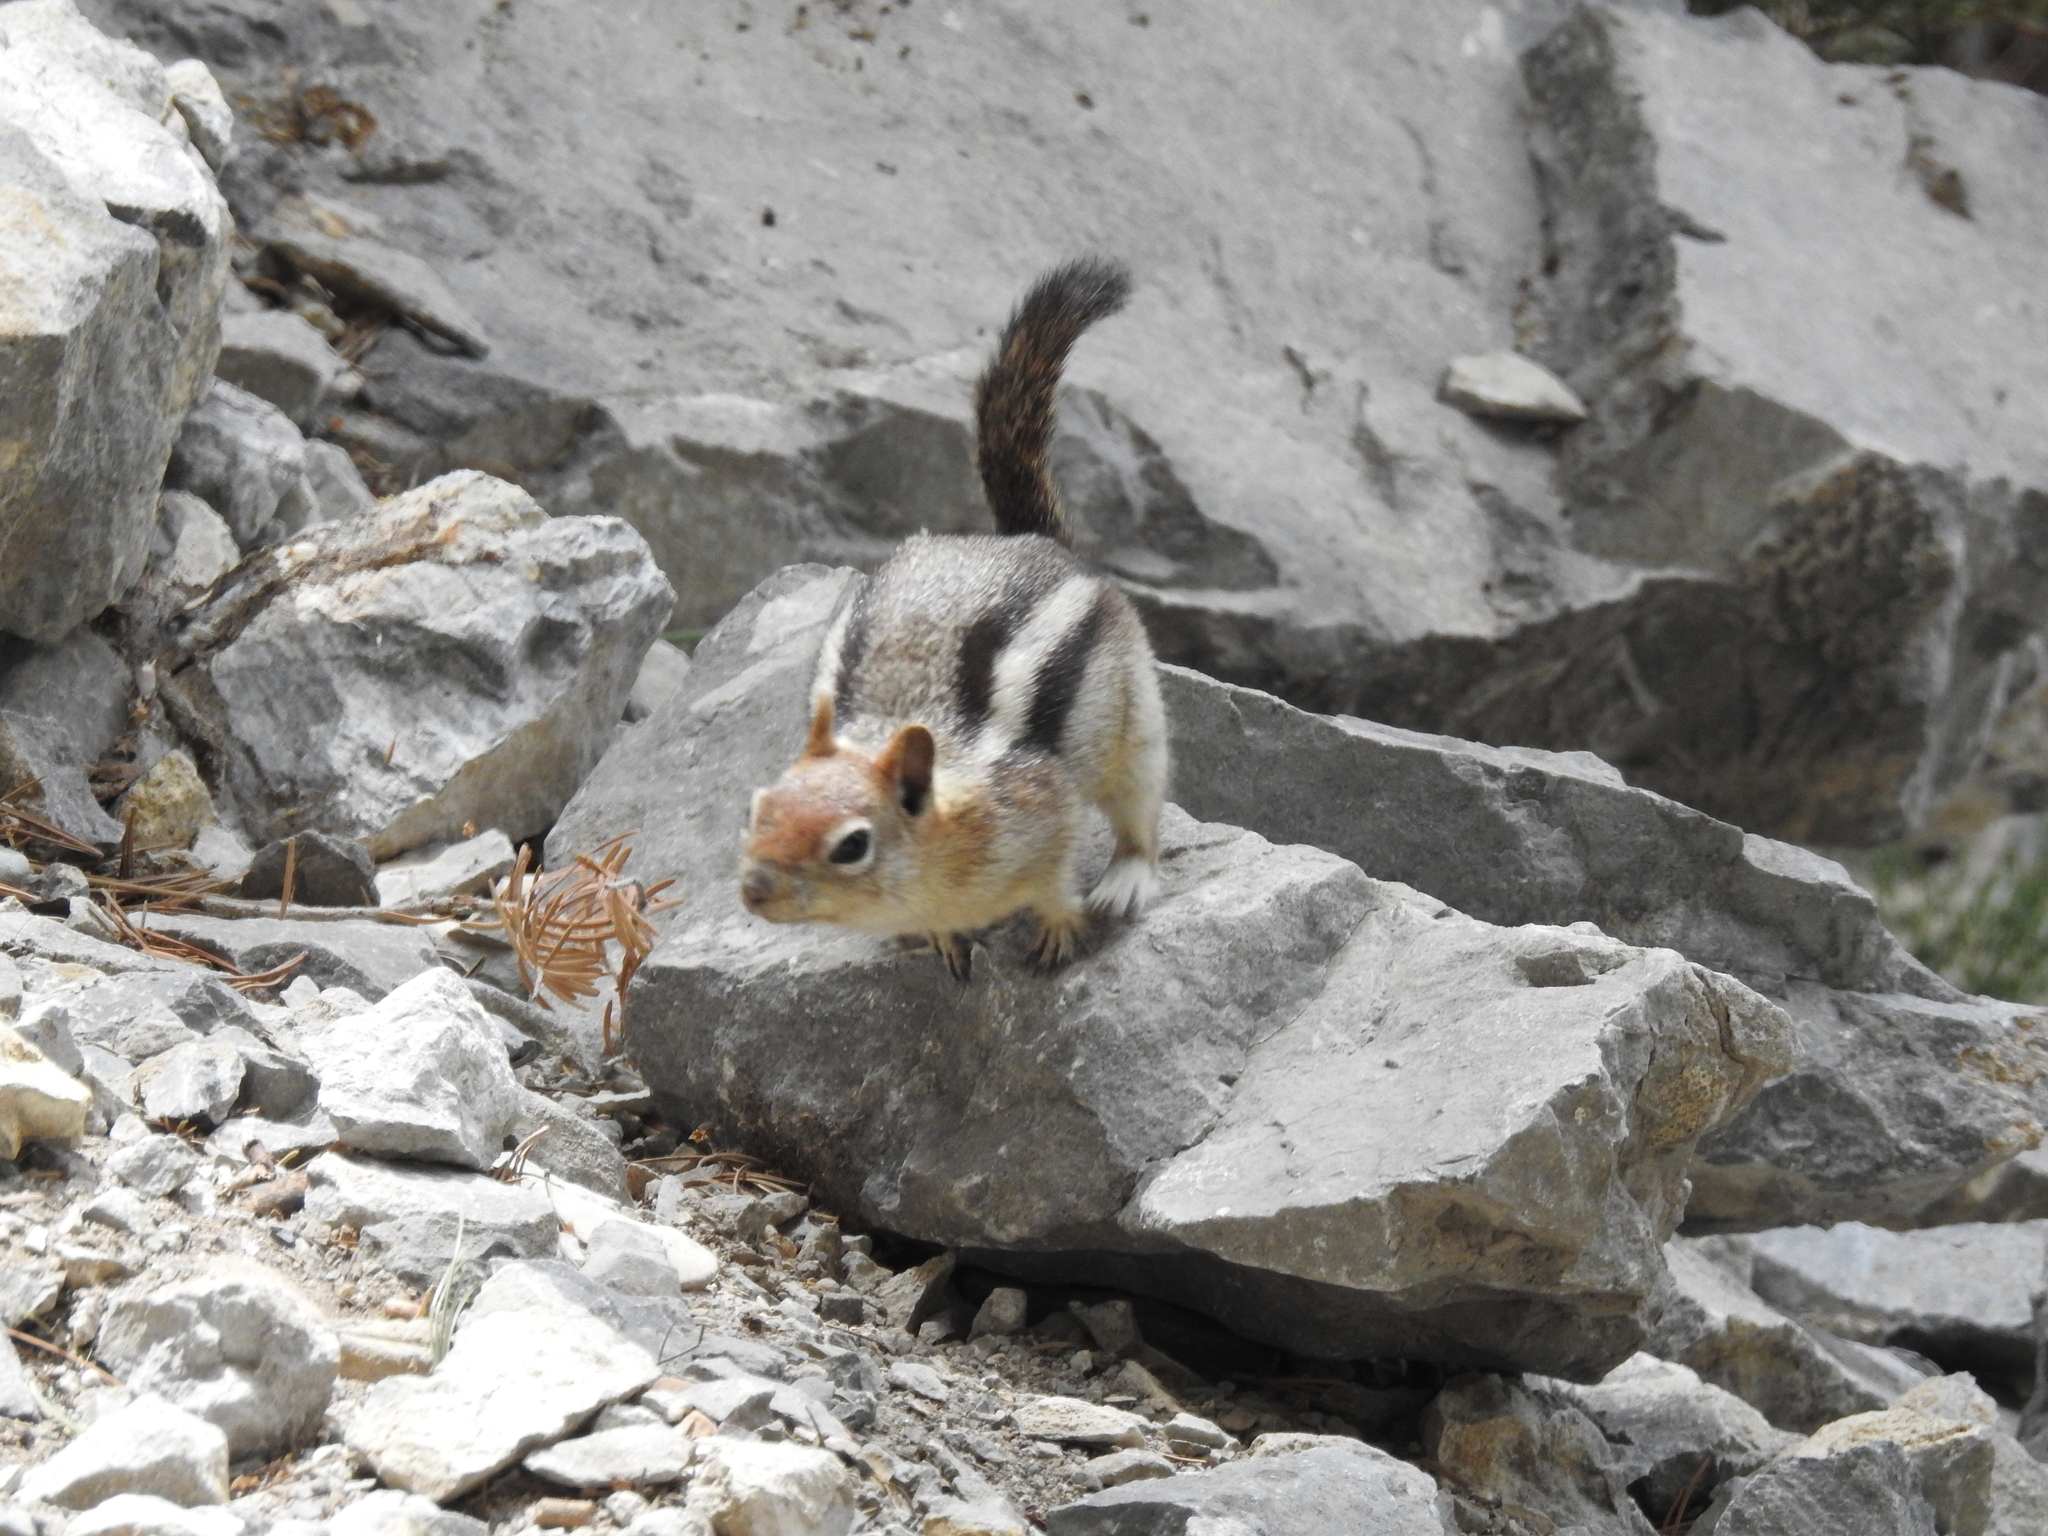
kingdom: Animalia
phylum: Chordata
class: Mammalia
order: Rodentia
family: Sciuridae
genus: Callospermophilus
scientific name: Callospermophilus lateralis
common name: Golden-mantled ground squirrel
